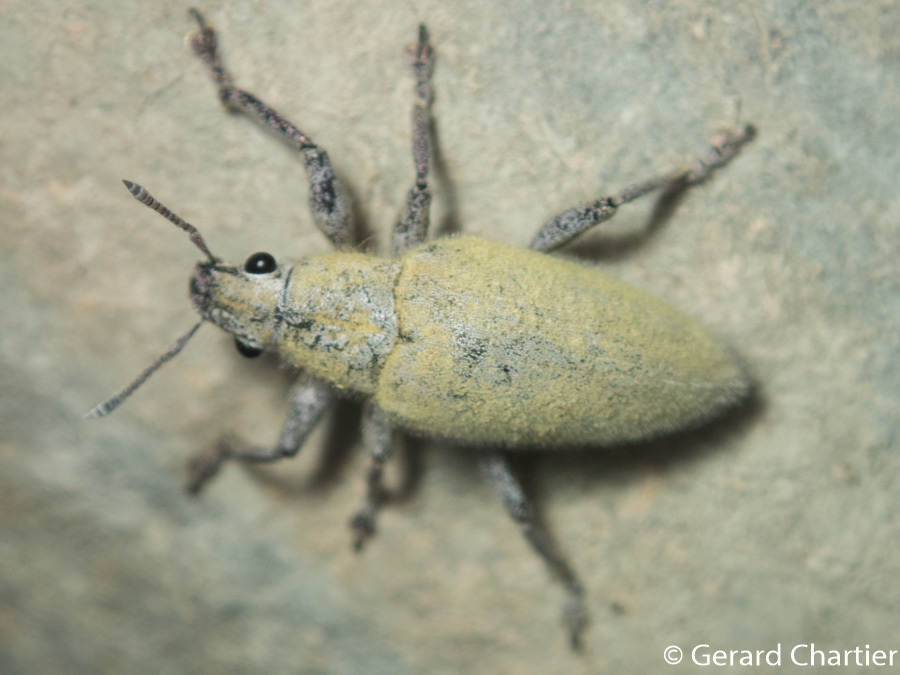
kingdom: Animalia
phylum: Arthropoda
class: Insecta
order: Coleoptera
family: Curculionidae
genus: Hypomeces
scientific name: Hypomeces pulviger
